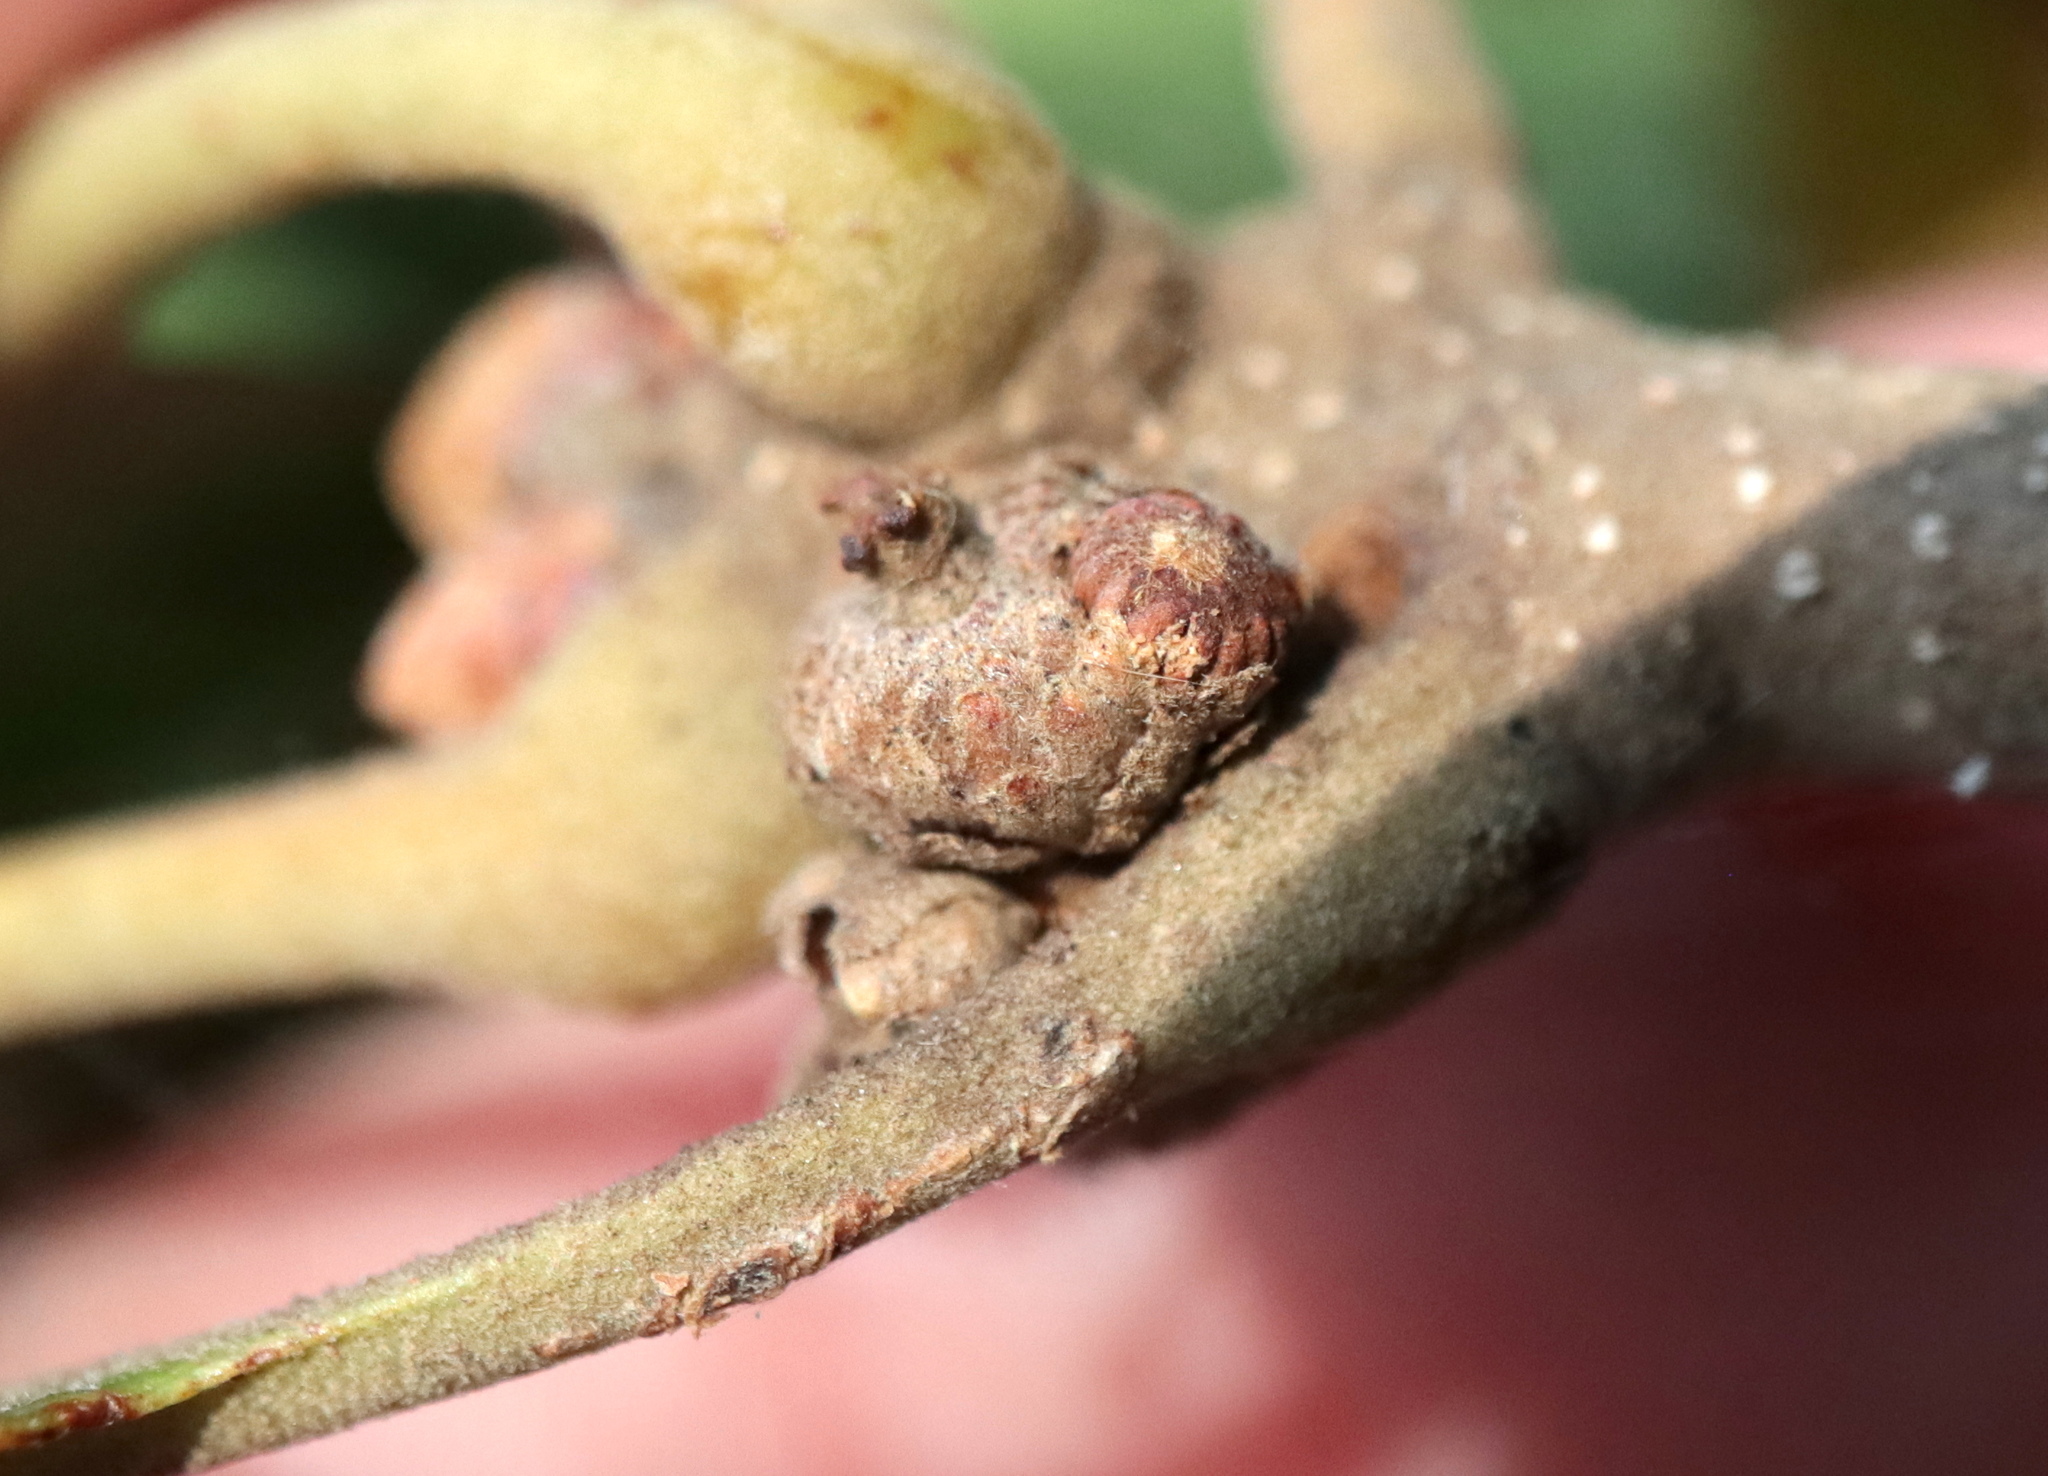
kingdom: Animalia
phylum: Arthropoda
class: Insecta
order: Hymenoptera
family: Cynipidae
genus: Callirhytis
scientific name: Callirhytis
